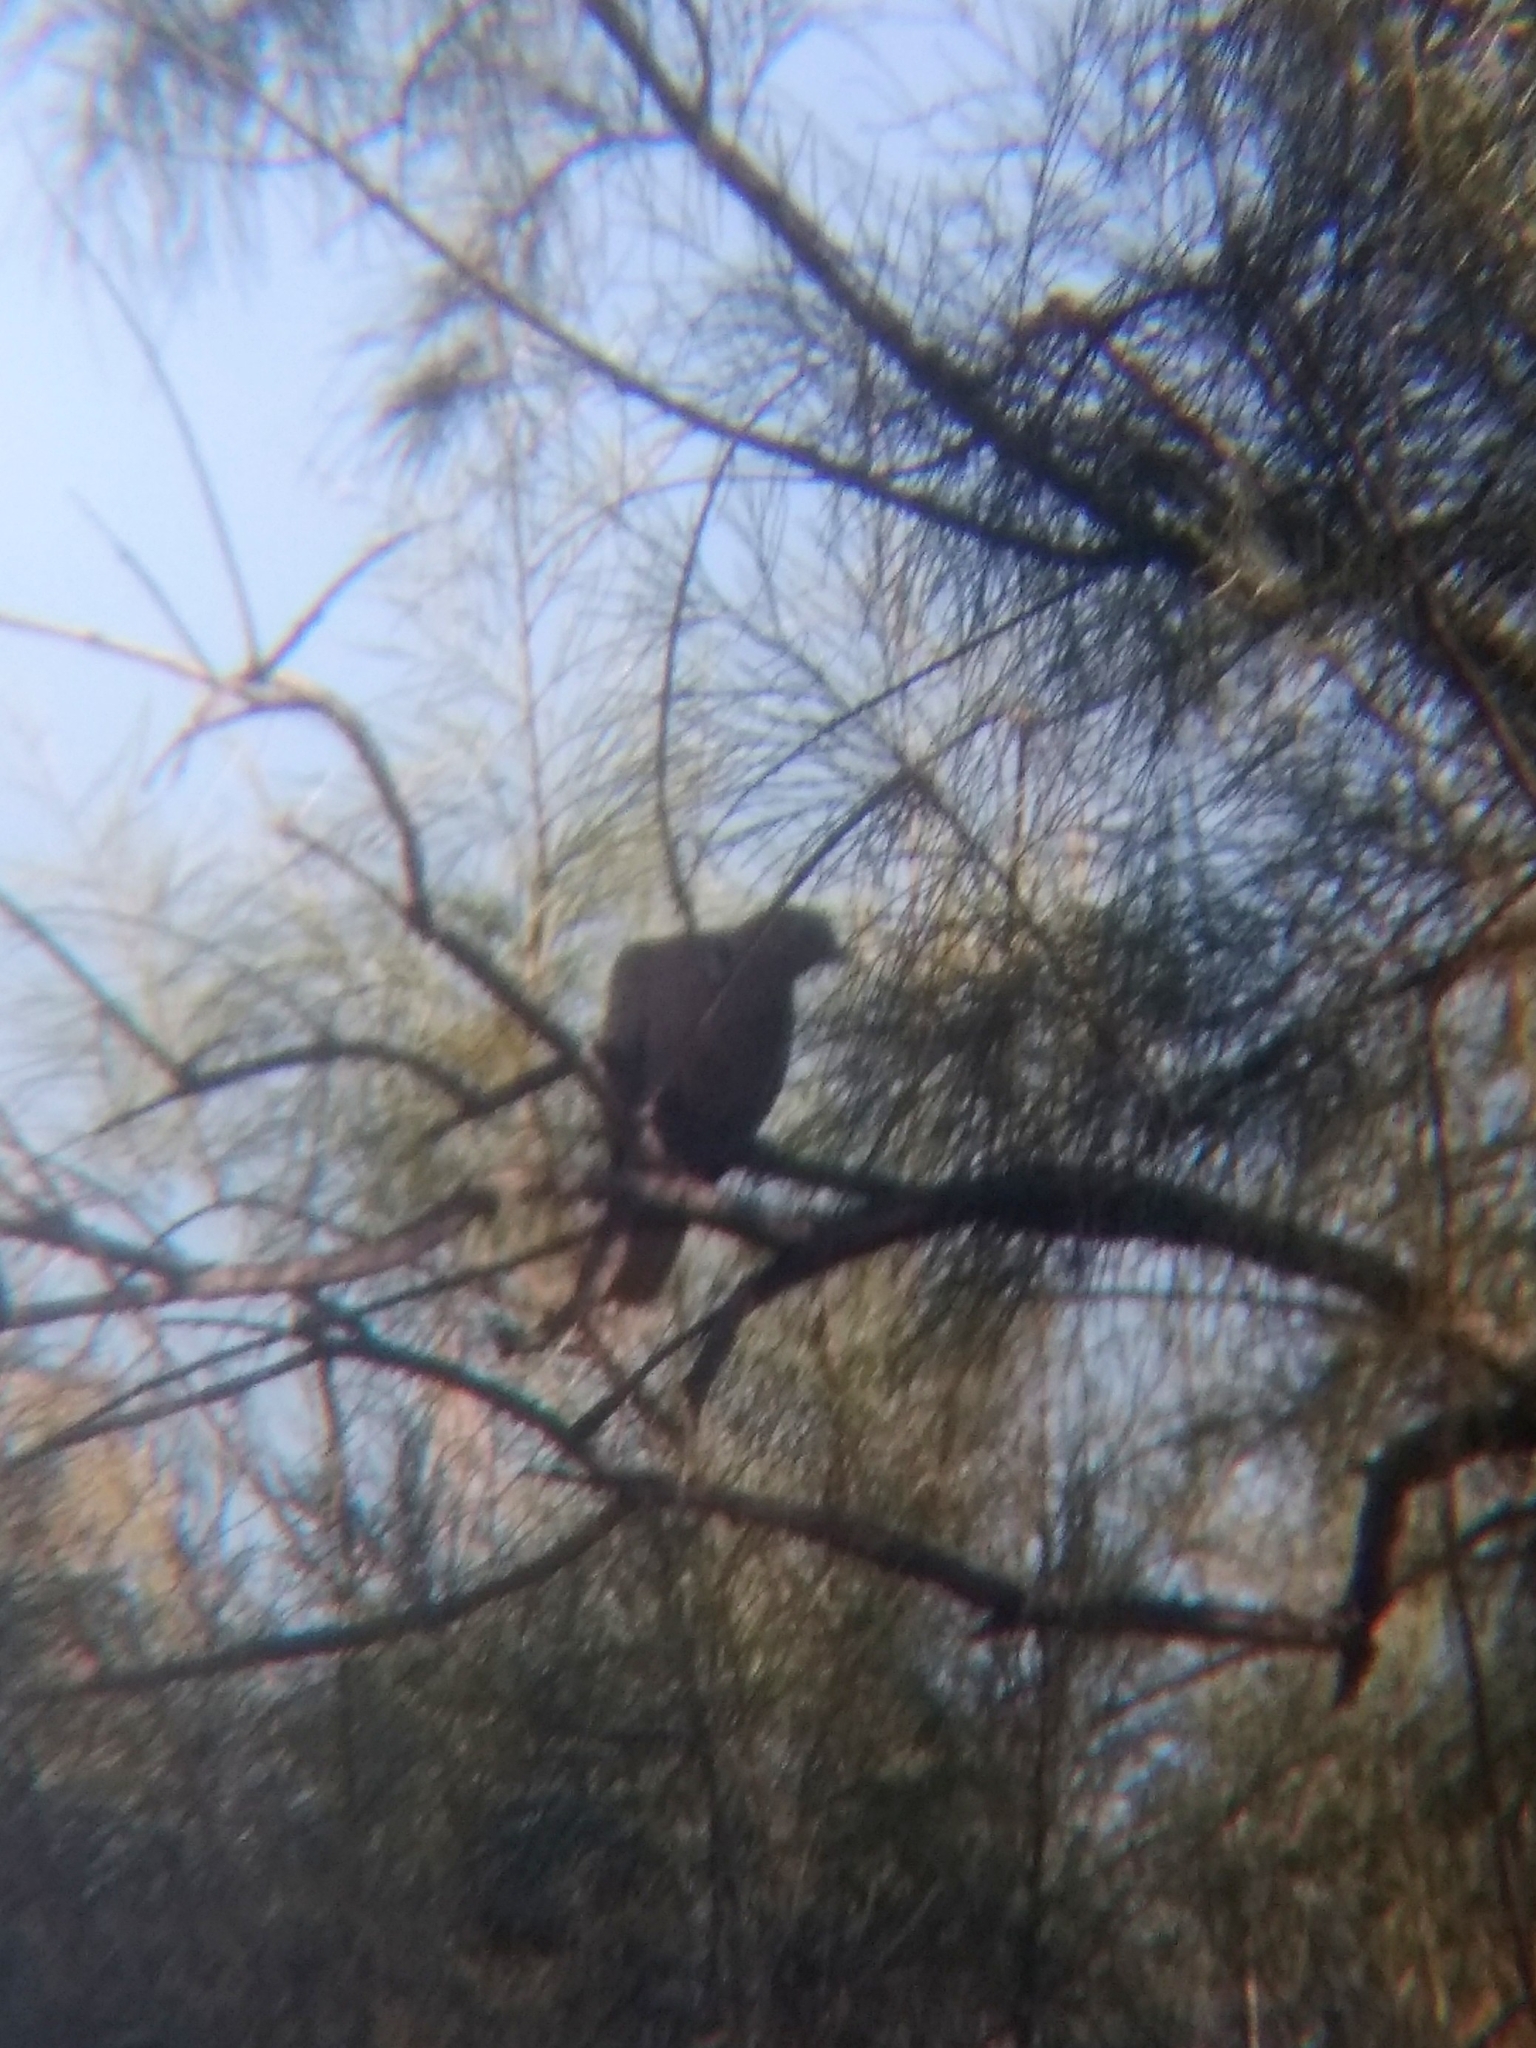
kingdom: Animalia
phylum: Chordata
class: Aves
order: Columbiformes
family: Columbidae
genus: Streptopelia
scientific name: Streptopelia decaocto
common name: Eurasian collared dove
